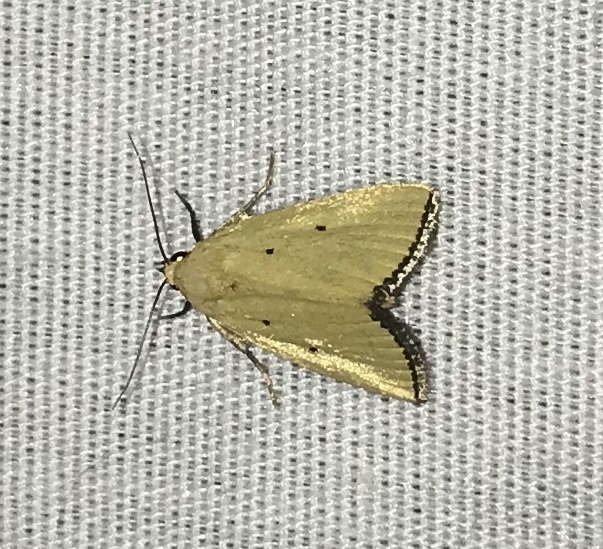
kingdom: Animalia
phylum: Arthropoda
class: Insecta
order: Lepidoptera
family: Noctuidae
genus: Marimatha
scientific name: Marimatha nigrofimbria
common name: Black-bordered lemon moth
